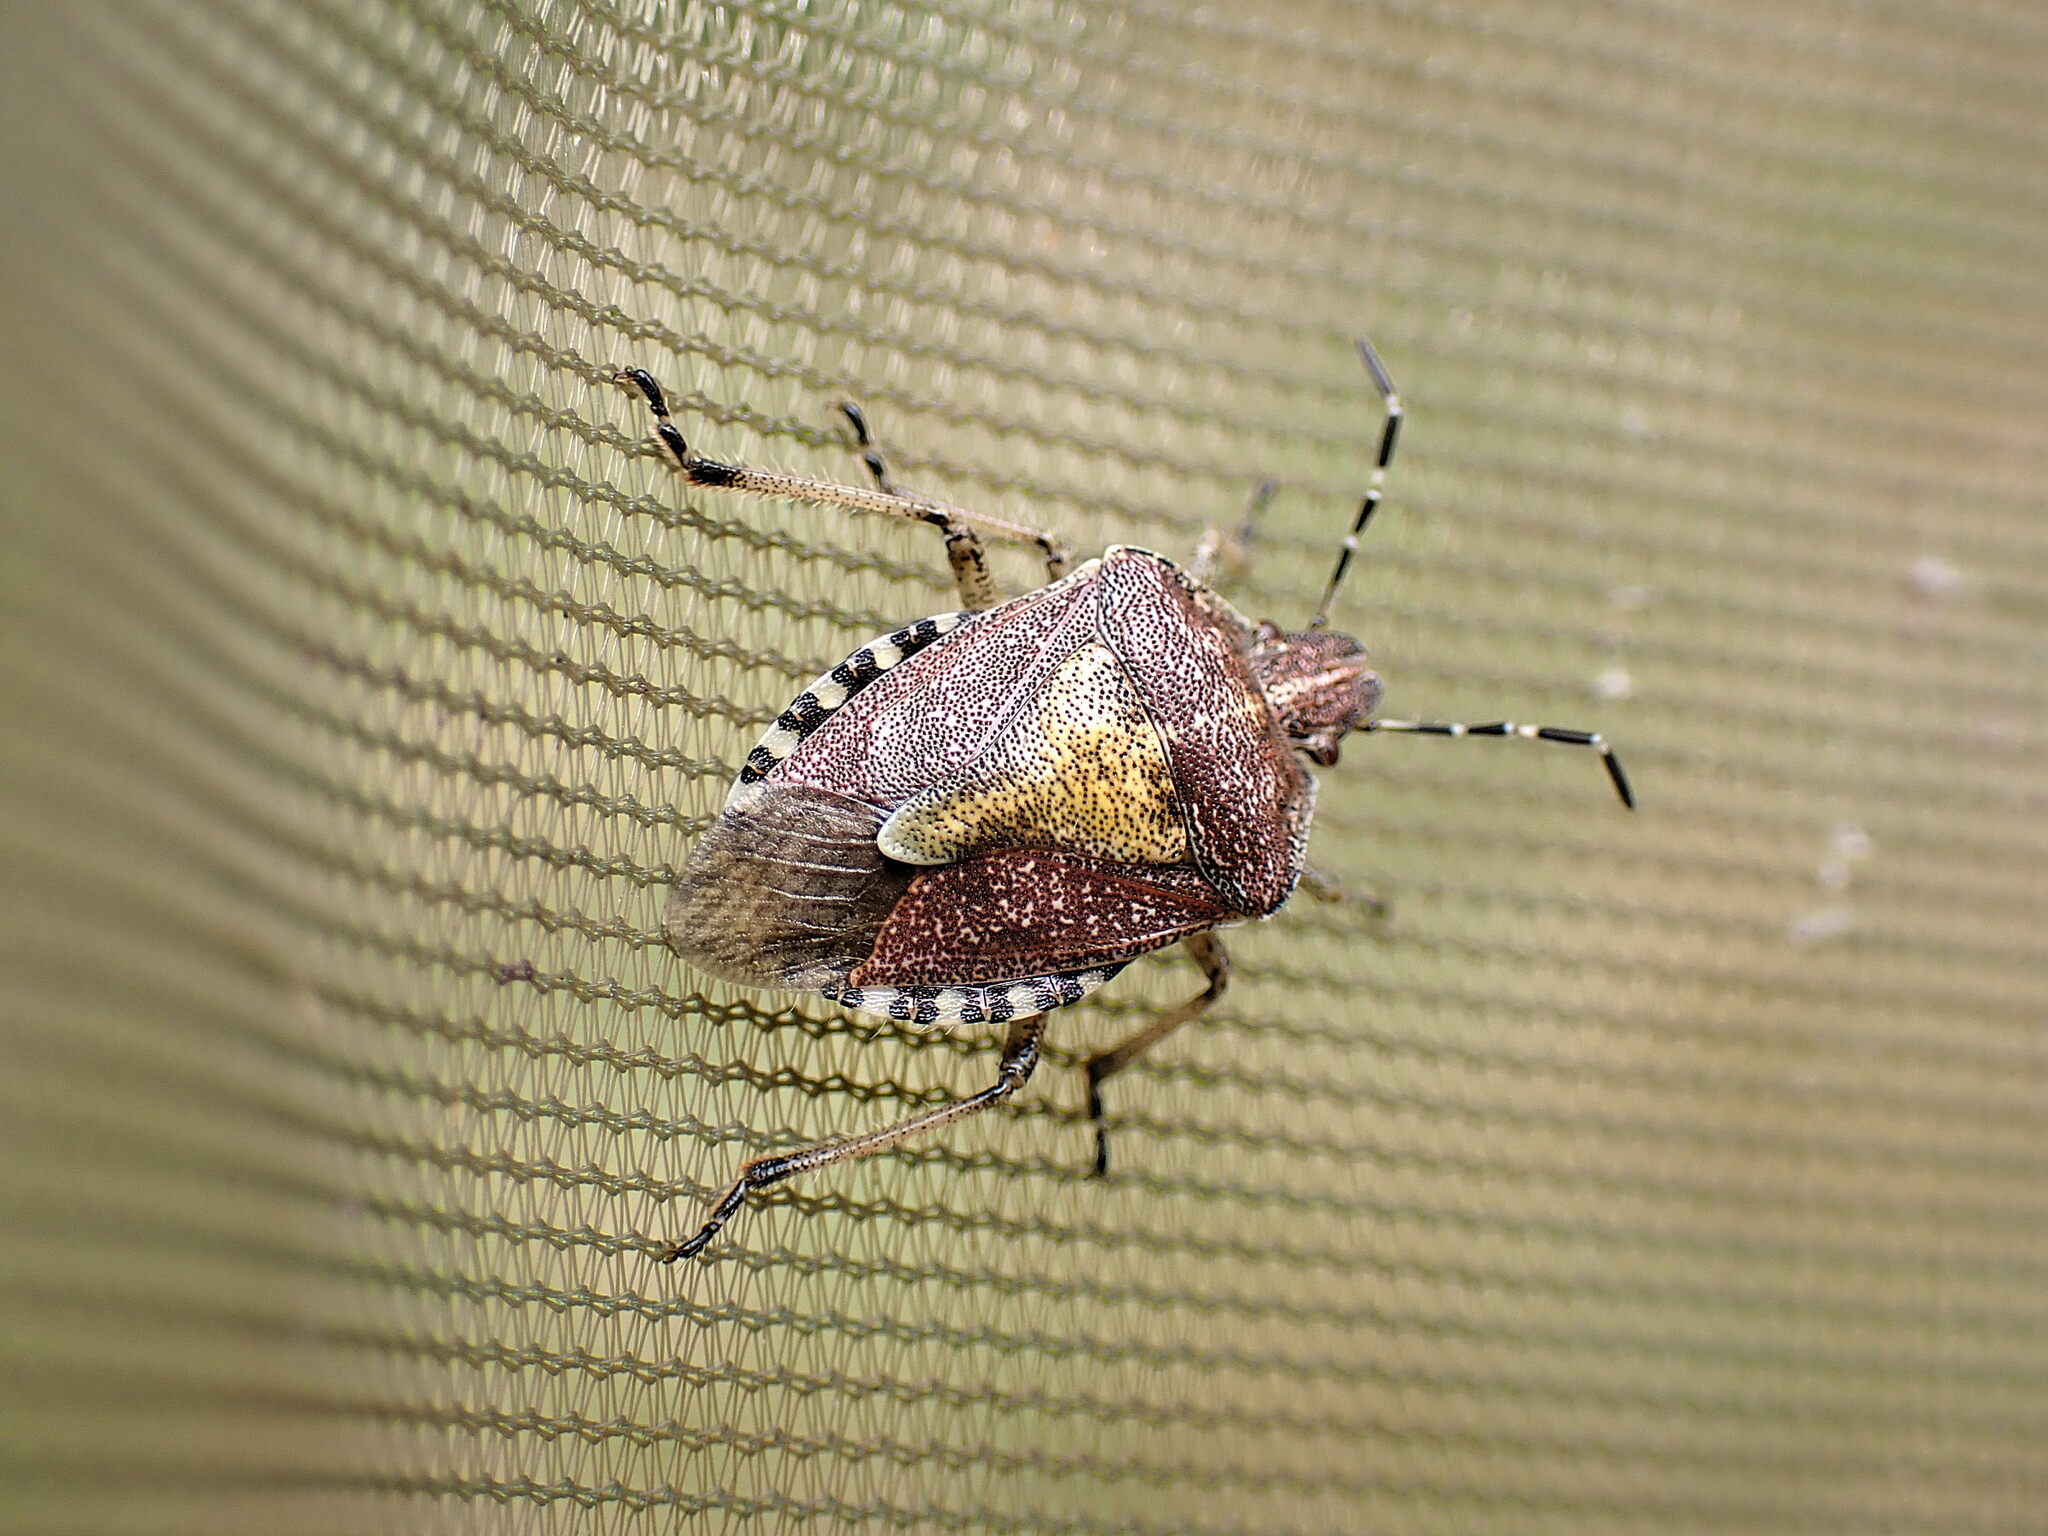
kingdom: Animalia
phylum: Arthropoda
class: Insecta
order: Hemiptera
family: Pentatomidae
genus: Dolycoris
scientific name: Dolycoris baccarum
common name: Sloe bug
